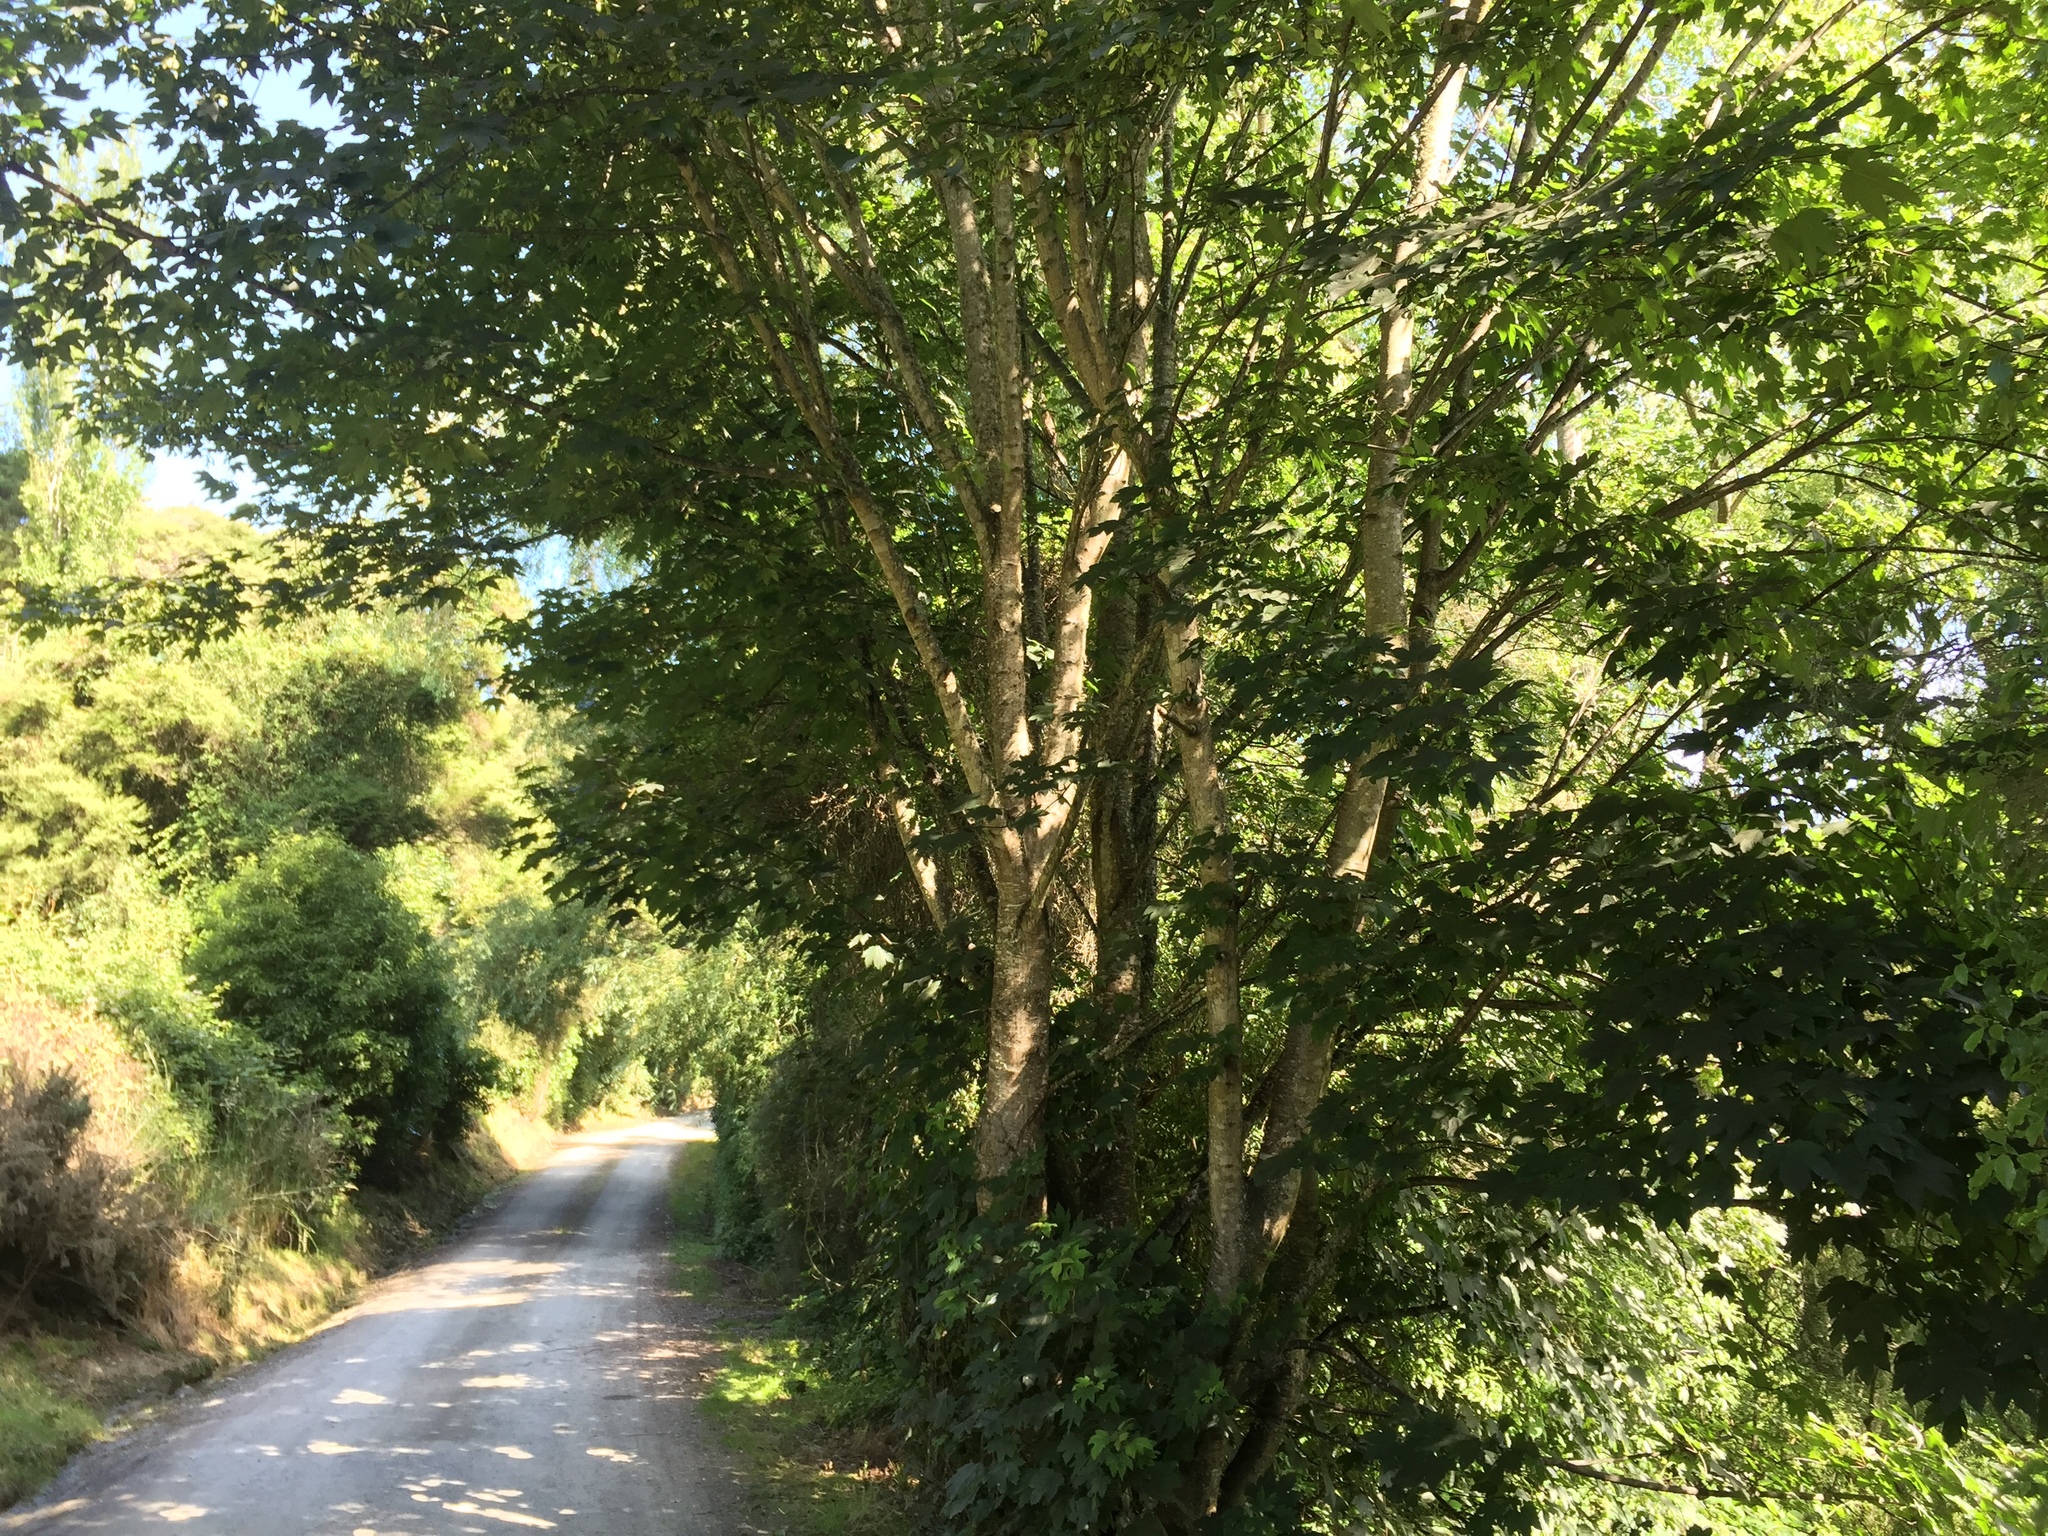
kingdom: Plantae
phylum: Tracheophyta
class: Magnoliopsida
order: Sapindales
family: Sapindaceae
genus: Acer
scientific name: Acer pseudoplatanus
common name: Sycamore
